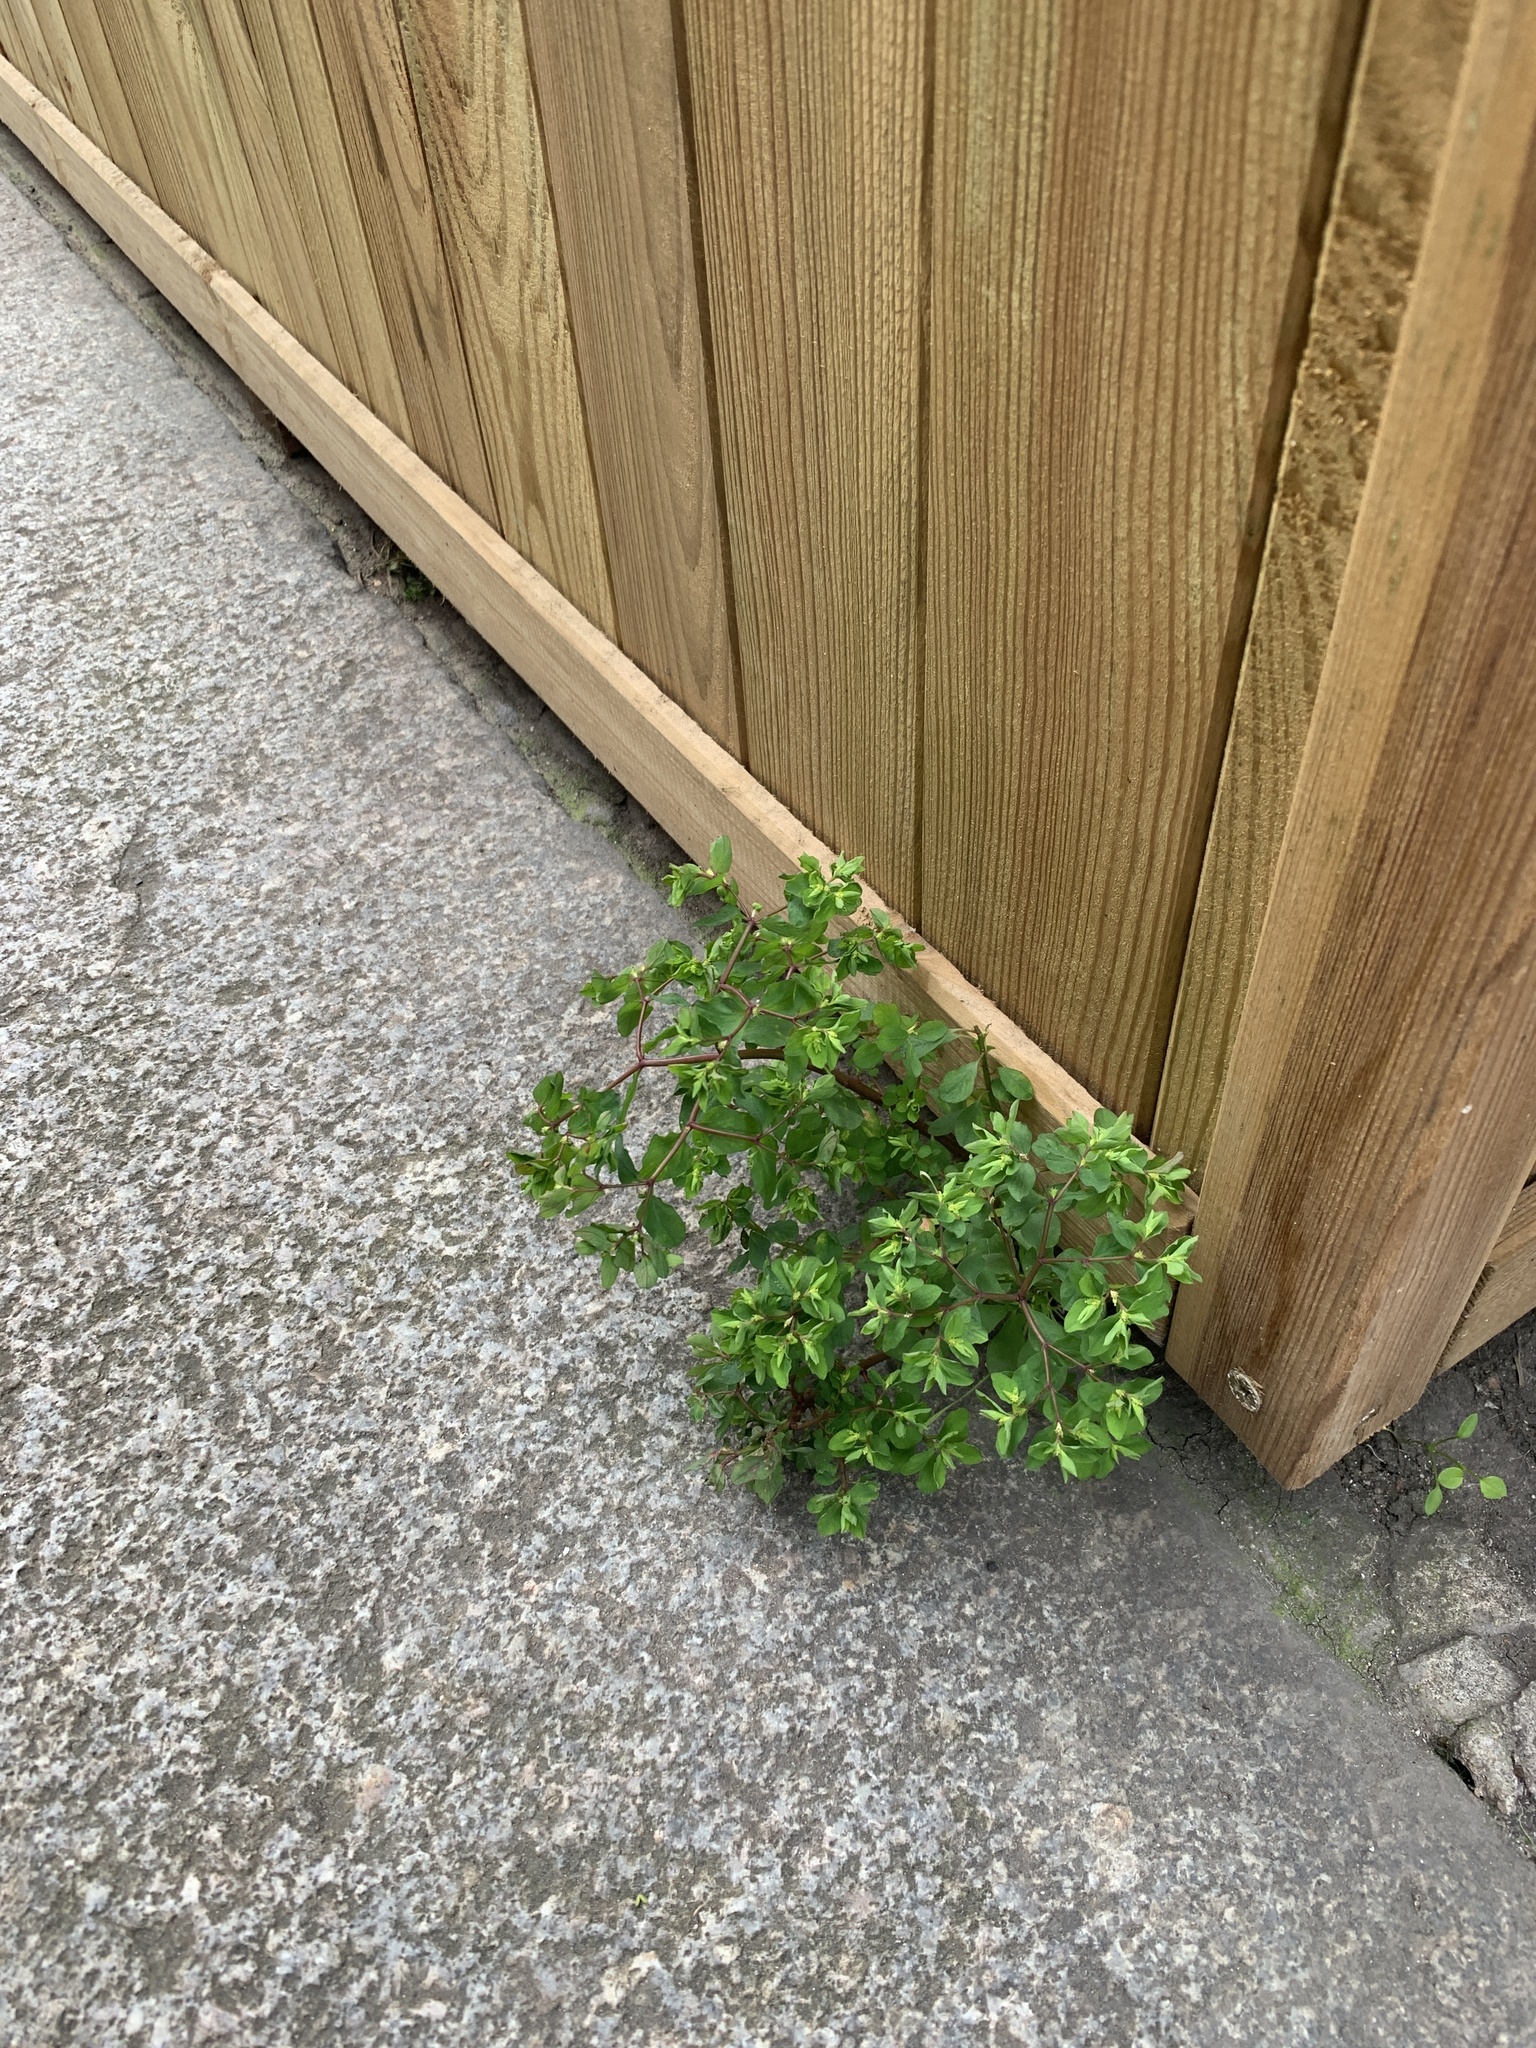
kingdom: Plantae
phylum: Tracheophyta
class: Magnoliopsida
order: Malpighiales
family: Euphorbiaceae
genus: Euphorbia
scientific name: Euphorbia peplus
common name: Petty spurge
